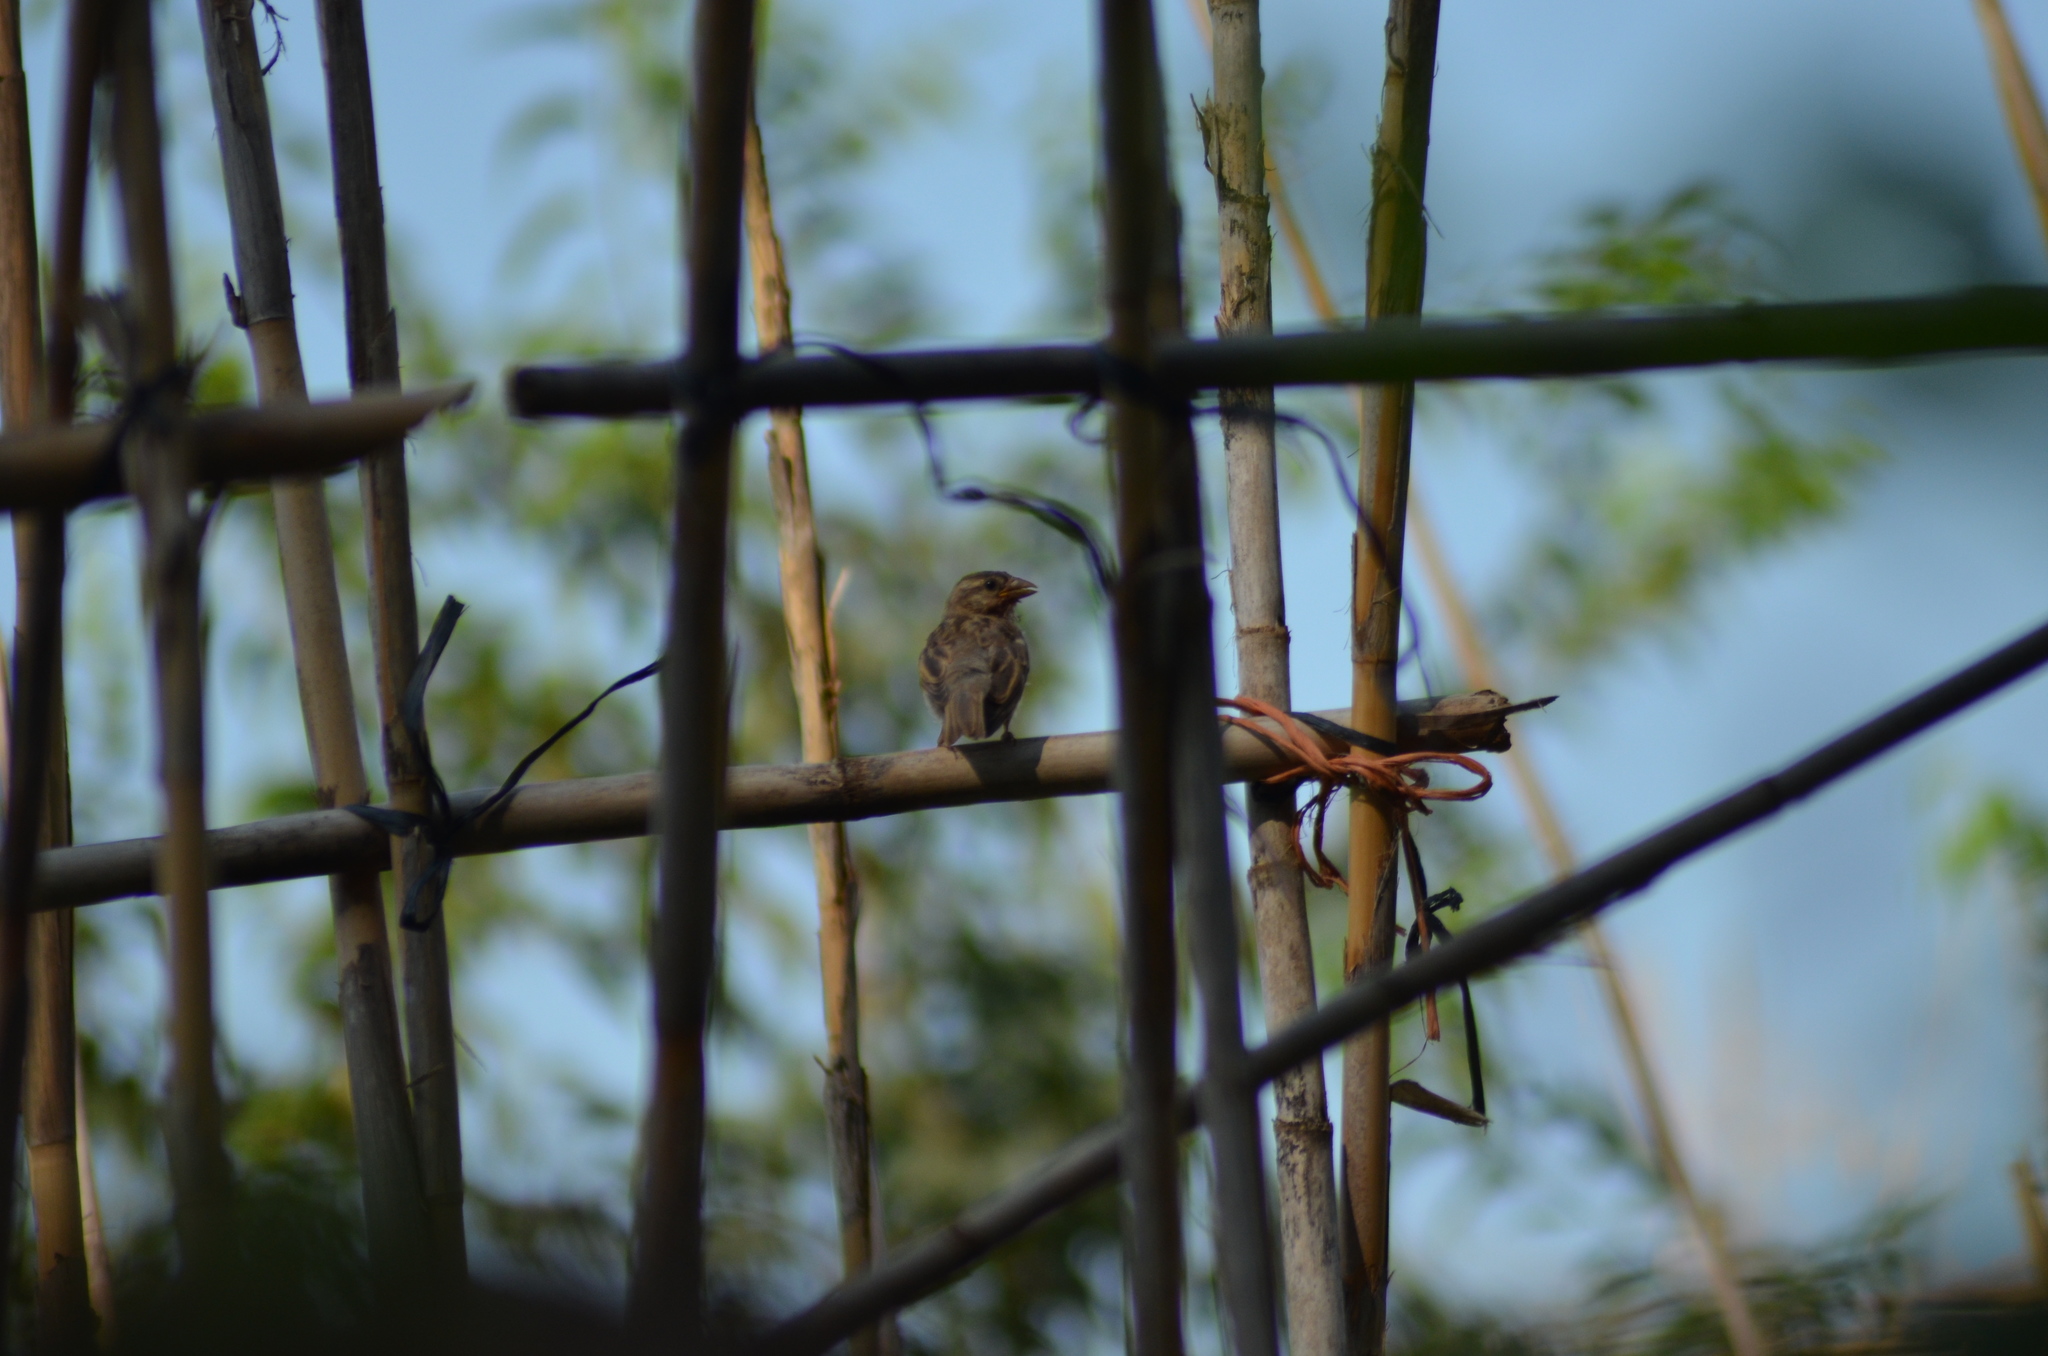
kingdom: Animalia
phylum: Chordata
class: Aves
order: Passeriformes
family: Passeridae
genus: Passer
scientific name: Passer domesticus
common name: House sparrow
